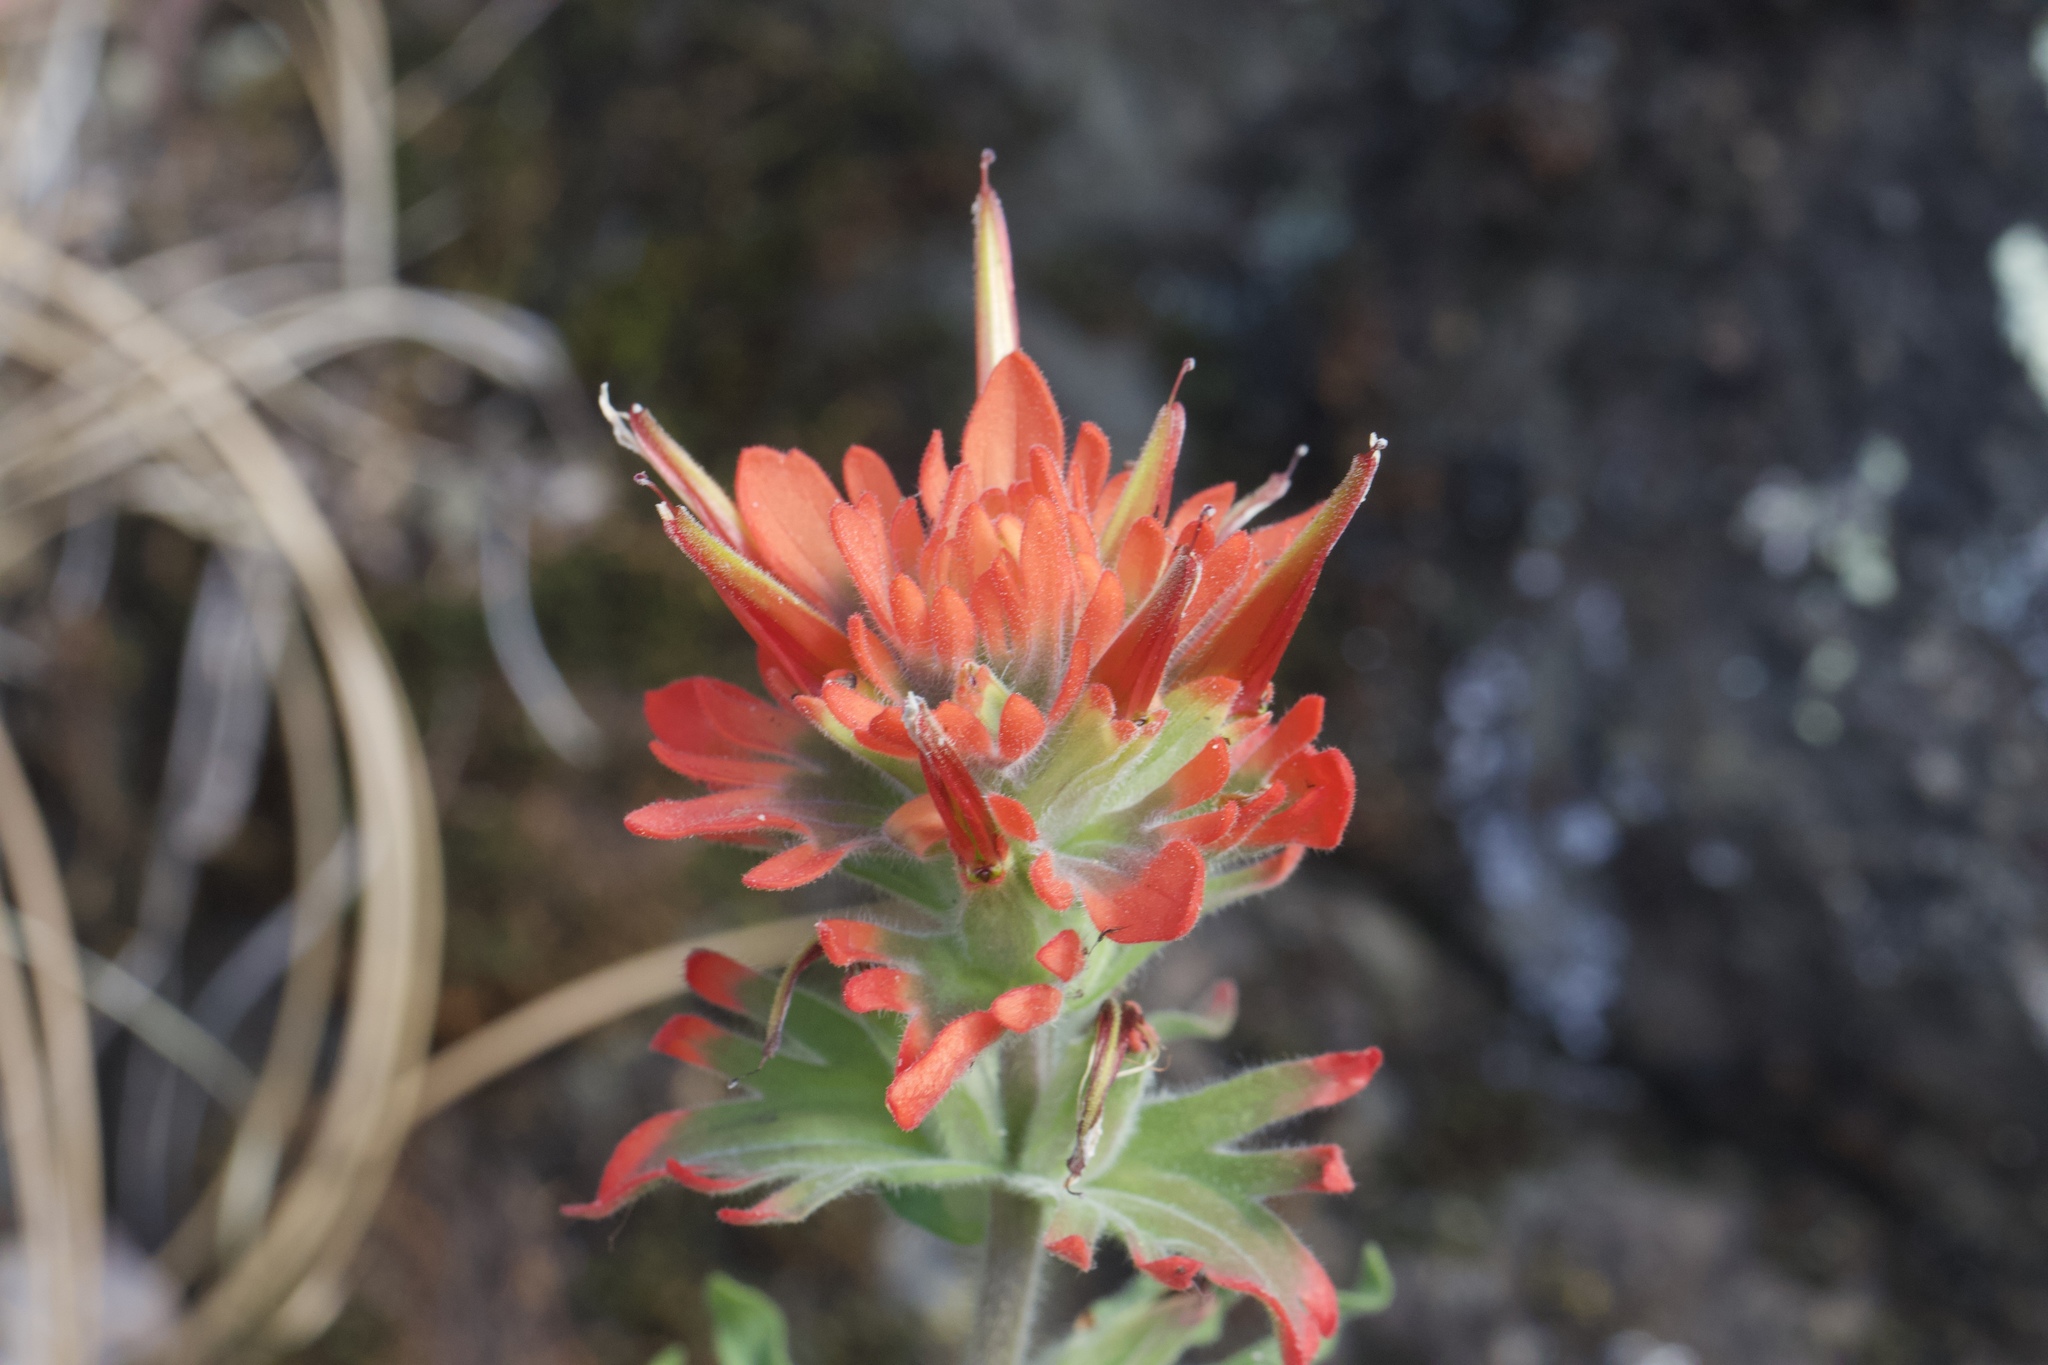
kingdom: Plantae
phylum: Tracheophyta
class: Magnoliopsida
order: Lamiales
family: Orobanchaceae
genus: Castilleja
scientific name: Castilleja martini
